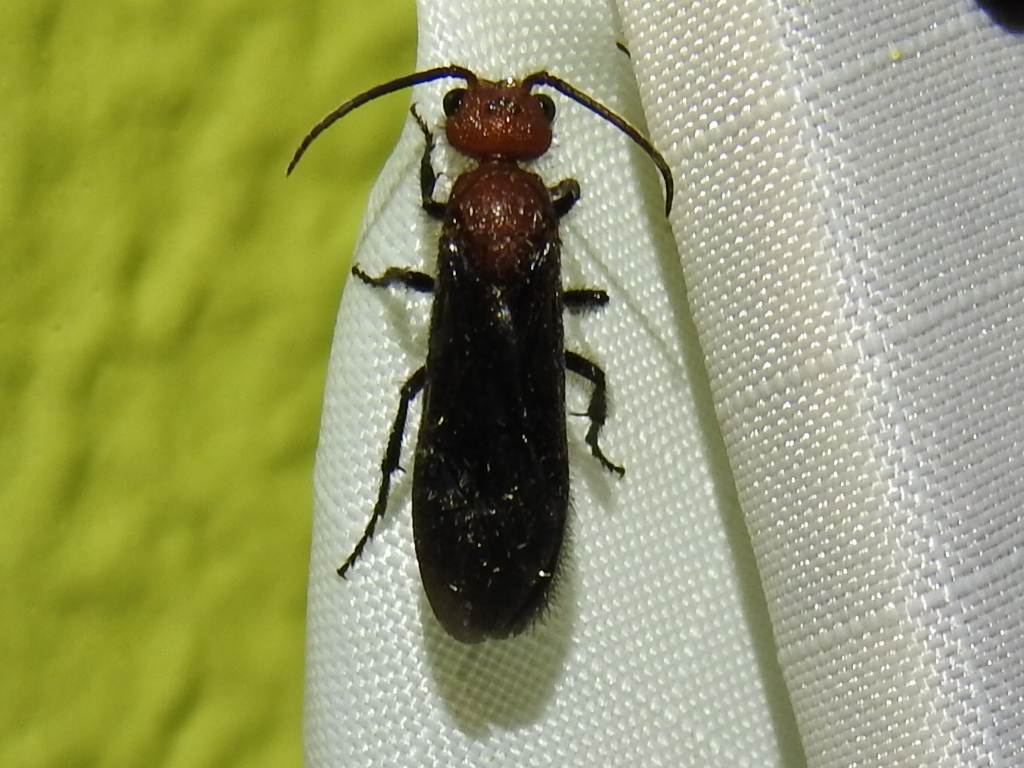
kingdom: Animalia
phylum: Arthropoda
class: Insecta
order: Hymenoptera
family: Mutillidae
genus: Sphaeropthalma
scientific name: Sphaeropthalma
